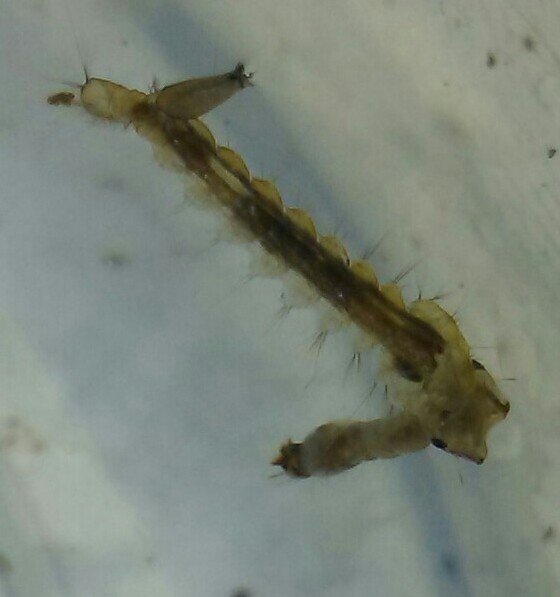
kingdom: Animalia
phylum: Arthropoda
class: Insecta
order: Diptera
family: Culicidae
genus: Psorophora
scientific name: Psorophora howardii
